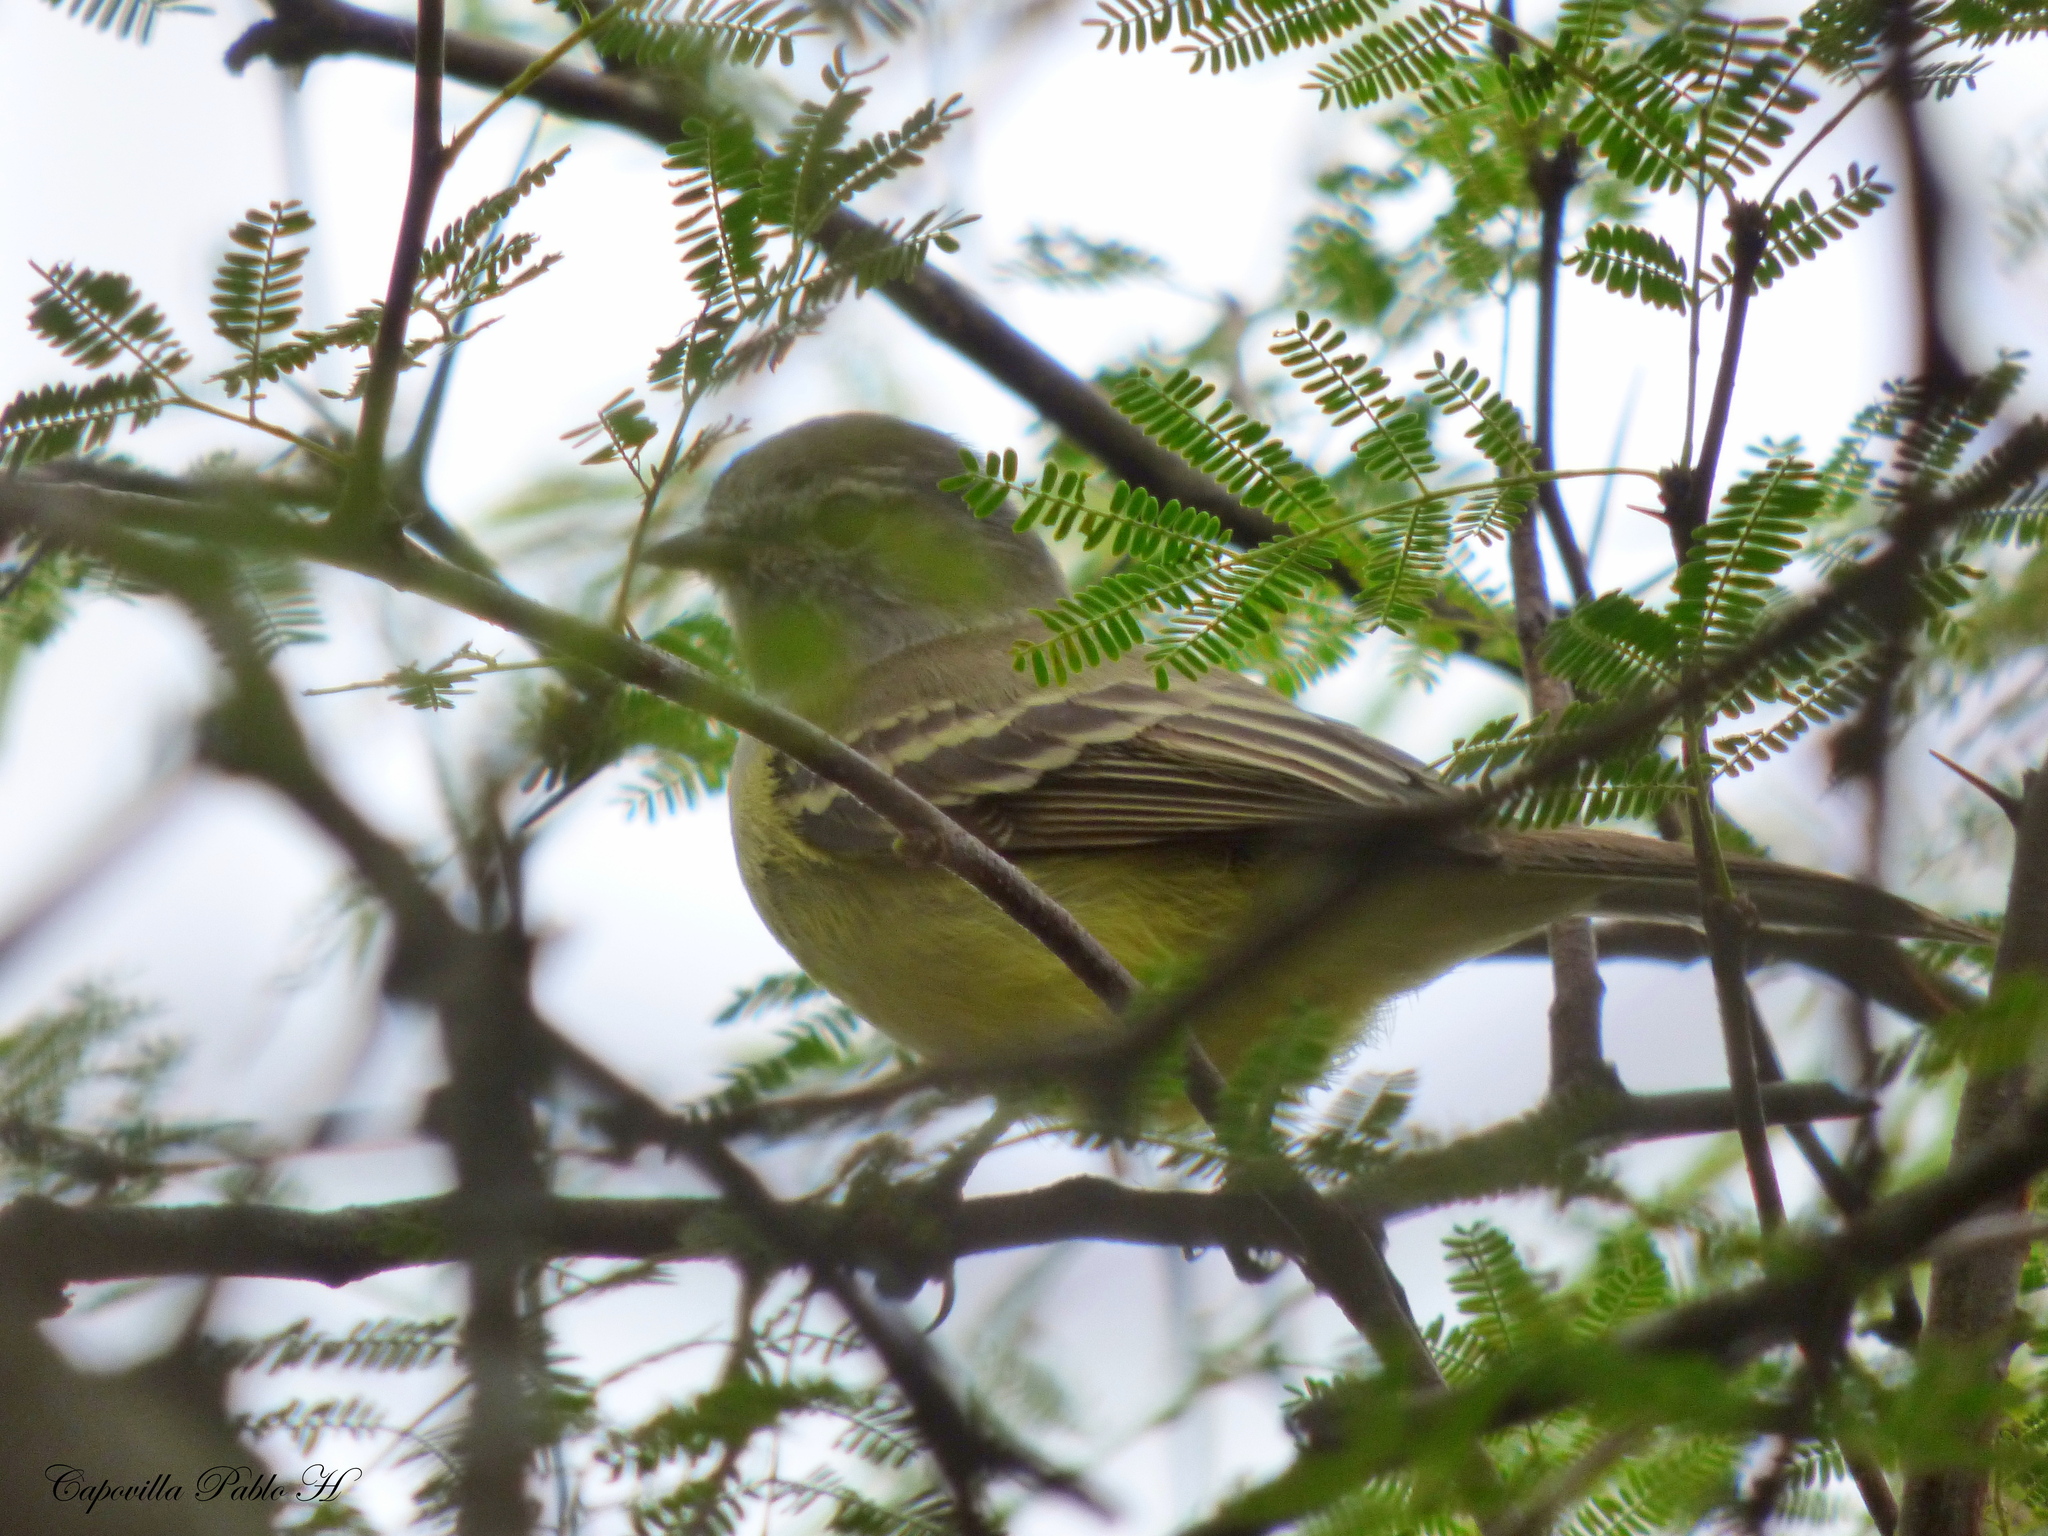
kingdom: Animalia
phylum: Chordata
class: Aves
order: Passeriformes
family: Tyrannidae
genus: Sublegatus
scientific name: Sublegatus modestus
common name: Southern scrub flycatcher
